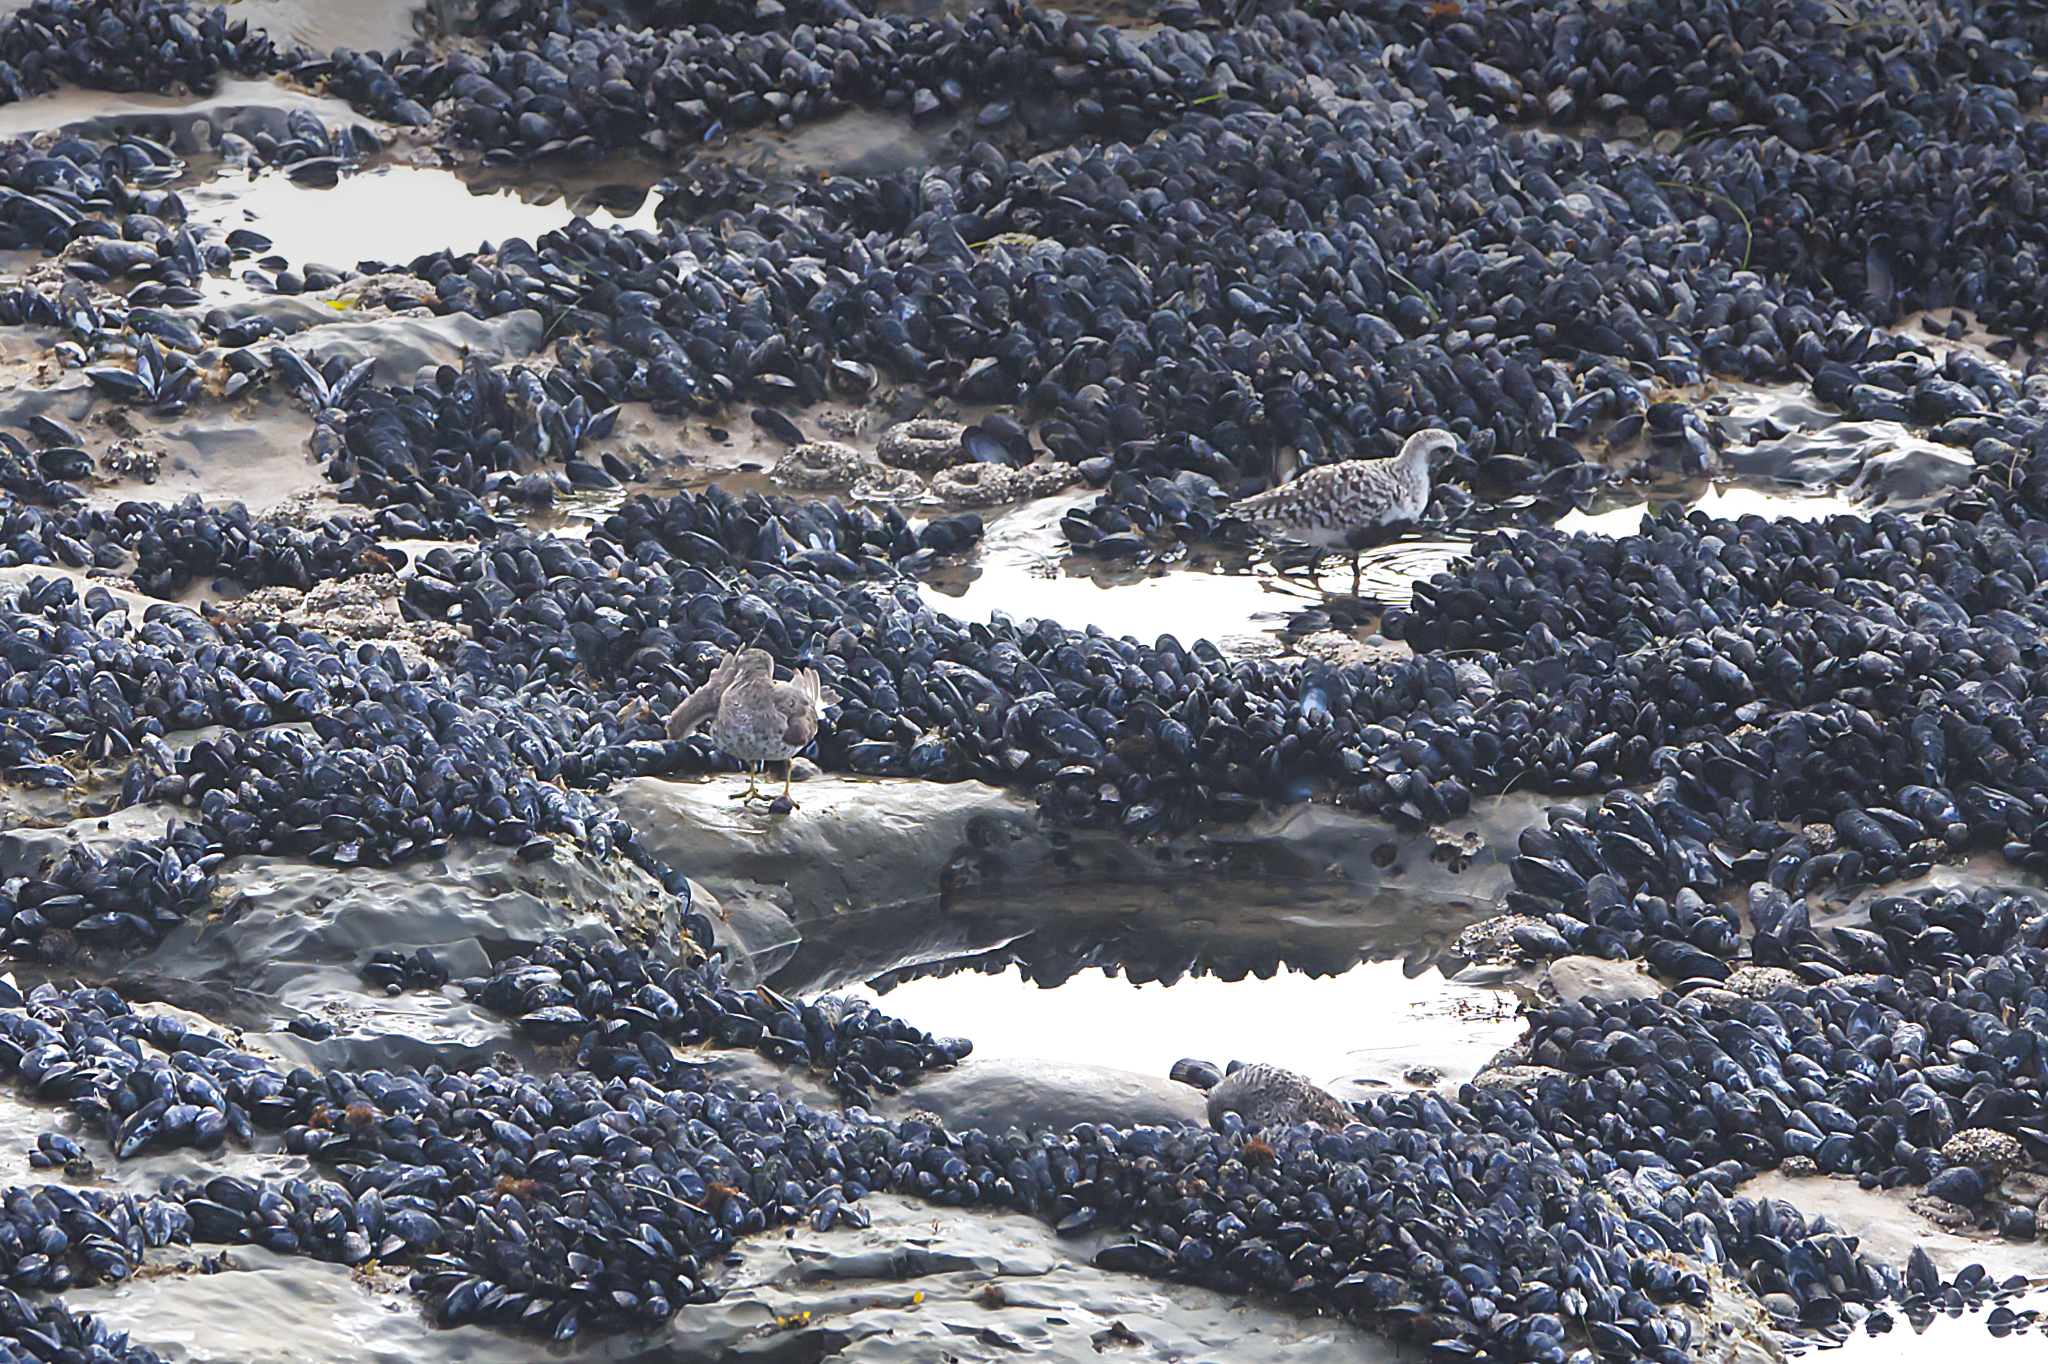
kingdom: Animalia
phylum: Chordata
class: Aves
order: Charadriiformes
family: Scolopacidae
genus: Calidris
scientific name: Calidris virgata
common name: Surfbird
